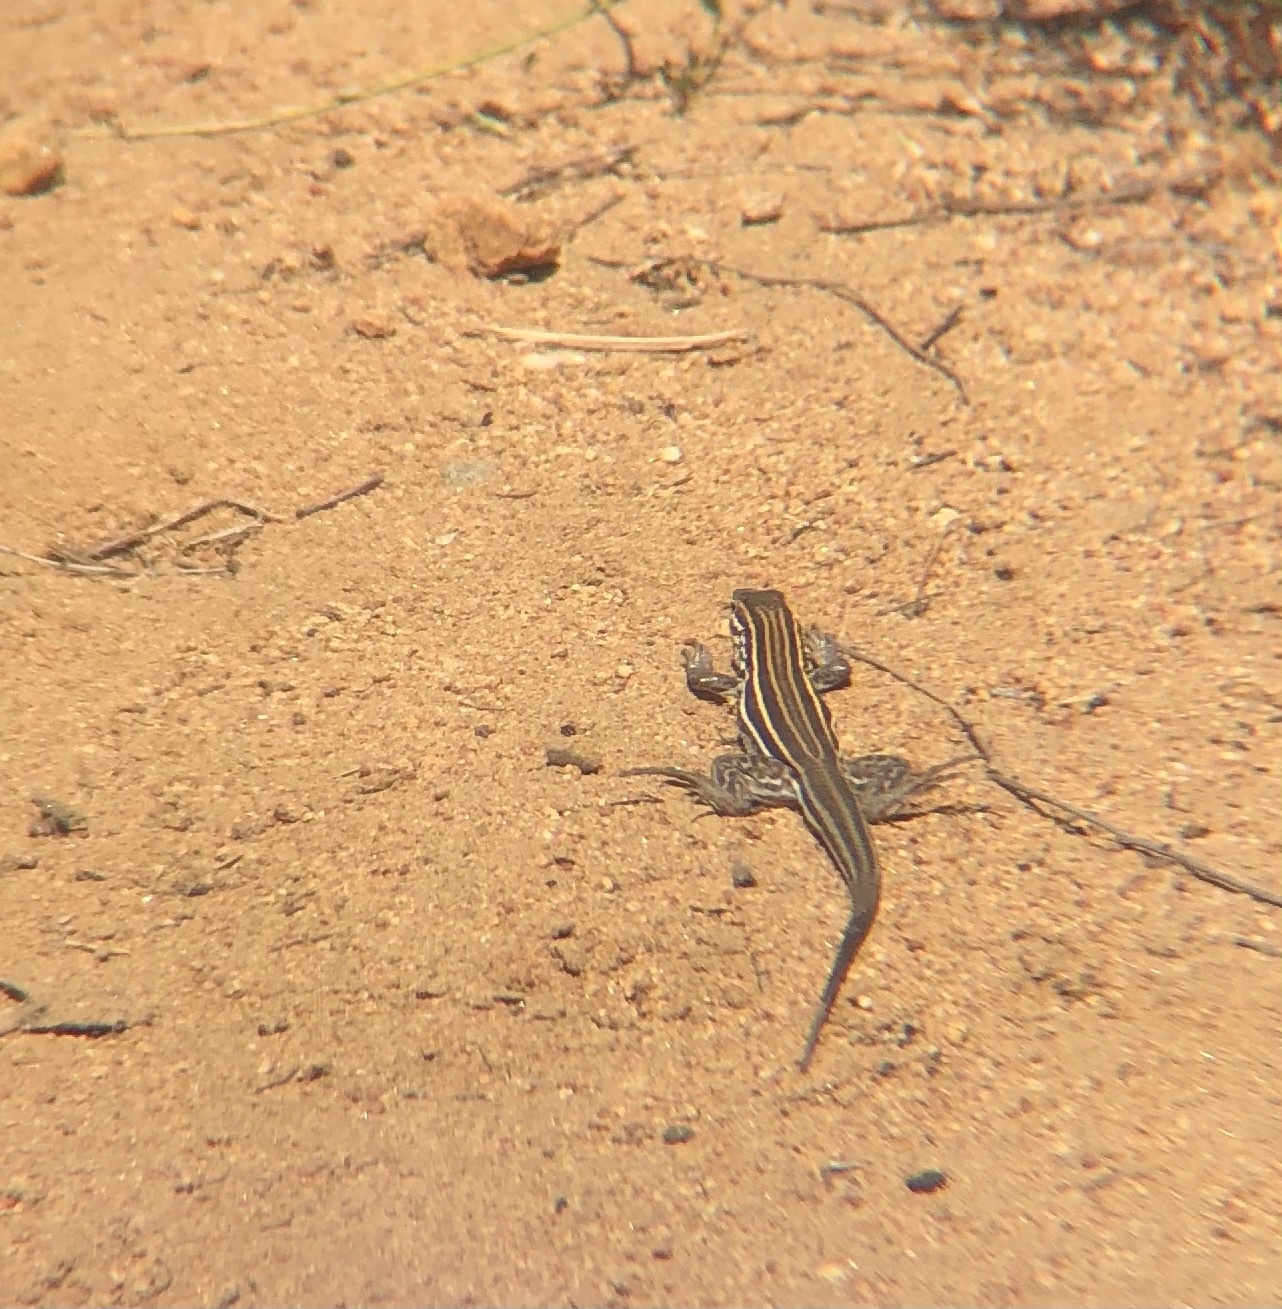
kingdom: Animalia
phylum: Chordata
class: Squamata
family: Teiidae
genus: Aspidoscelis
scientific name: Aspidoscelis hyperythrus
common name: Orange-throated race-runner
